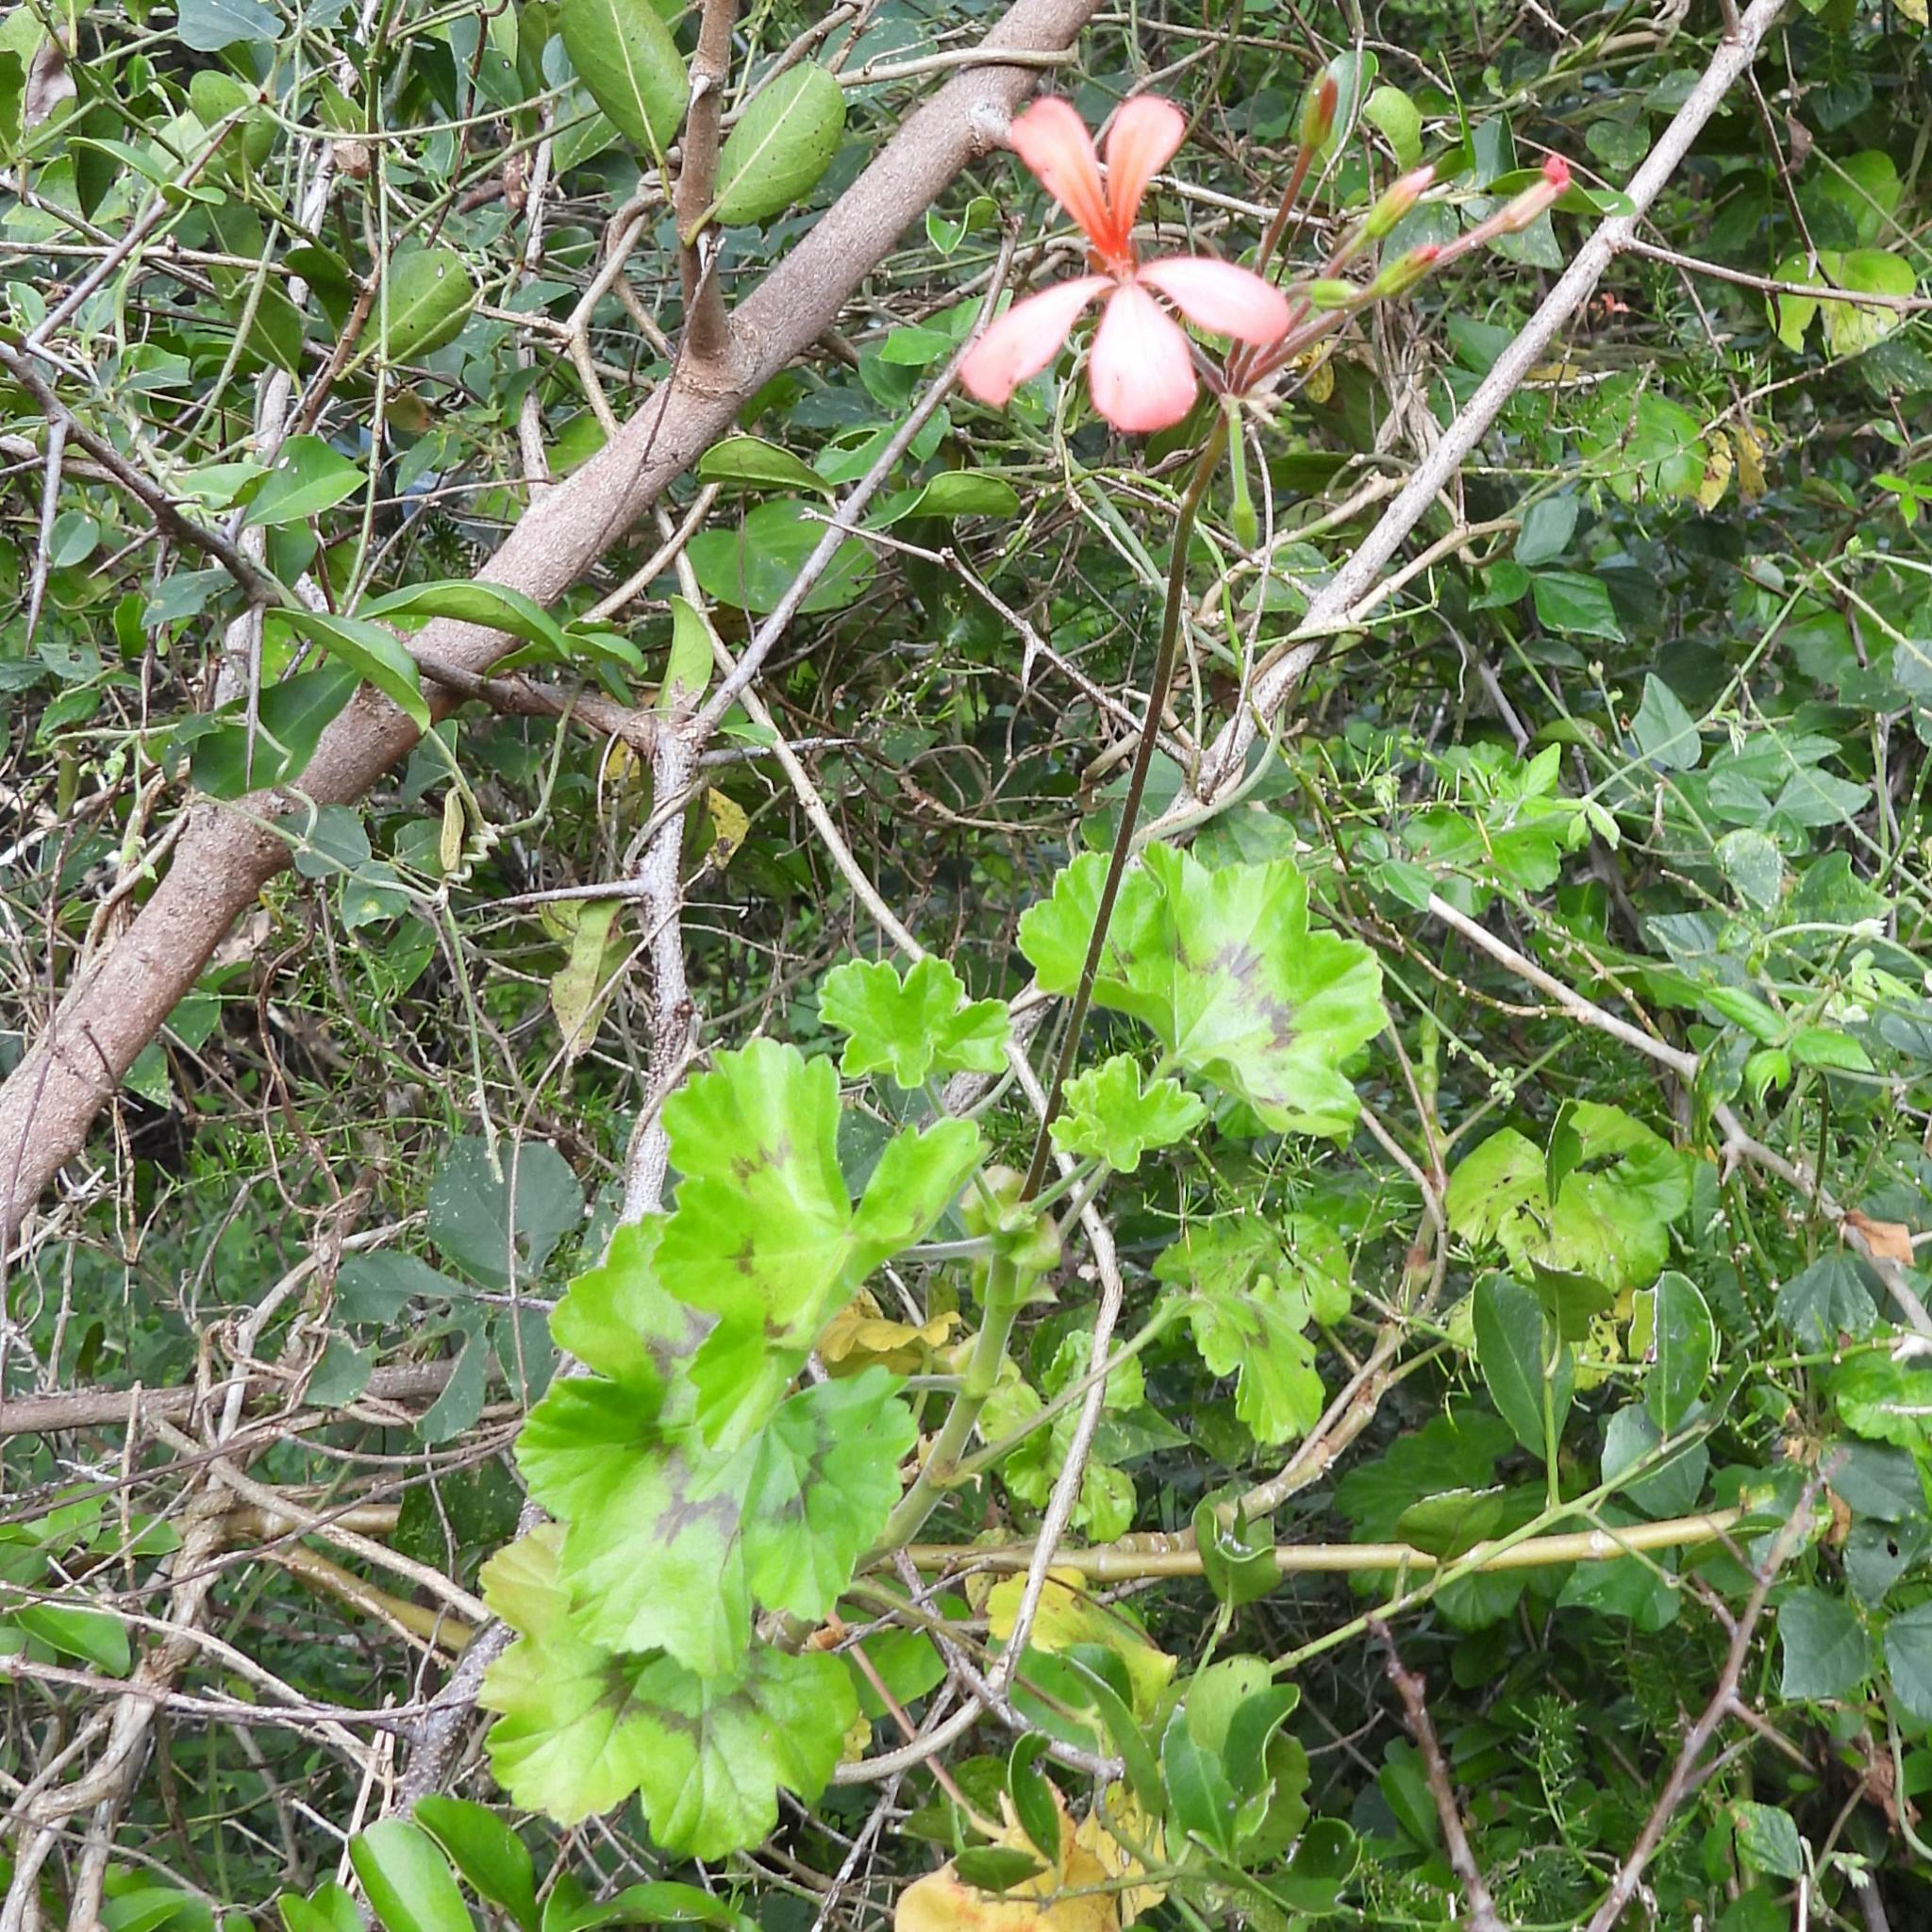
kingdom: Plantae
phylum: Tracheophyta
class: Magnoliopsida
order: Geraniales
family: Geraniaceae
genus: Pelargonium
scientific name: Pelargonium frutetorum
